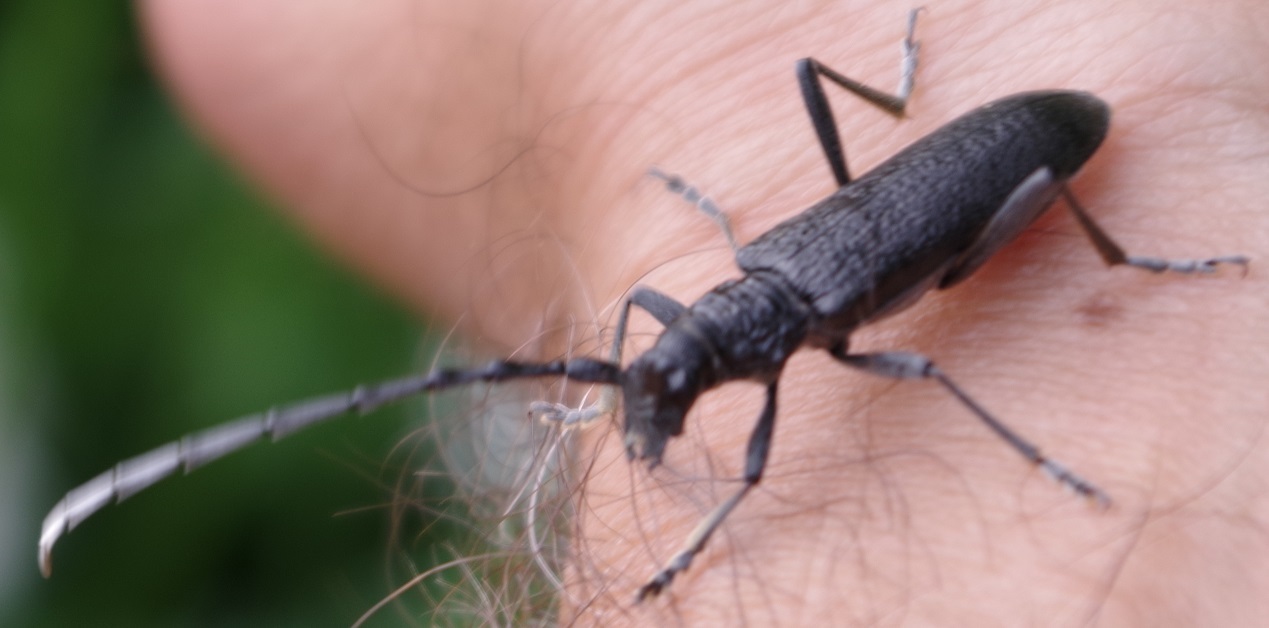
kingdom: Animalia
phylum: Arthropoda
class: Insecta
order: Coleoptera
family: Cerambycidae
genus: Cerambyx
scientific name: Cerambyx scopolii
